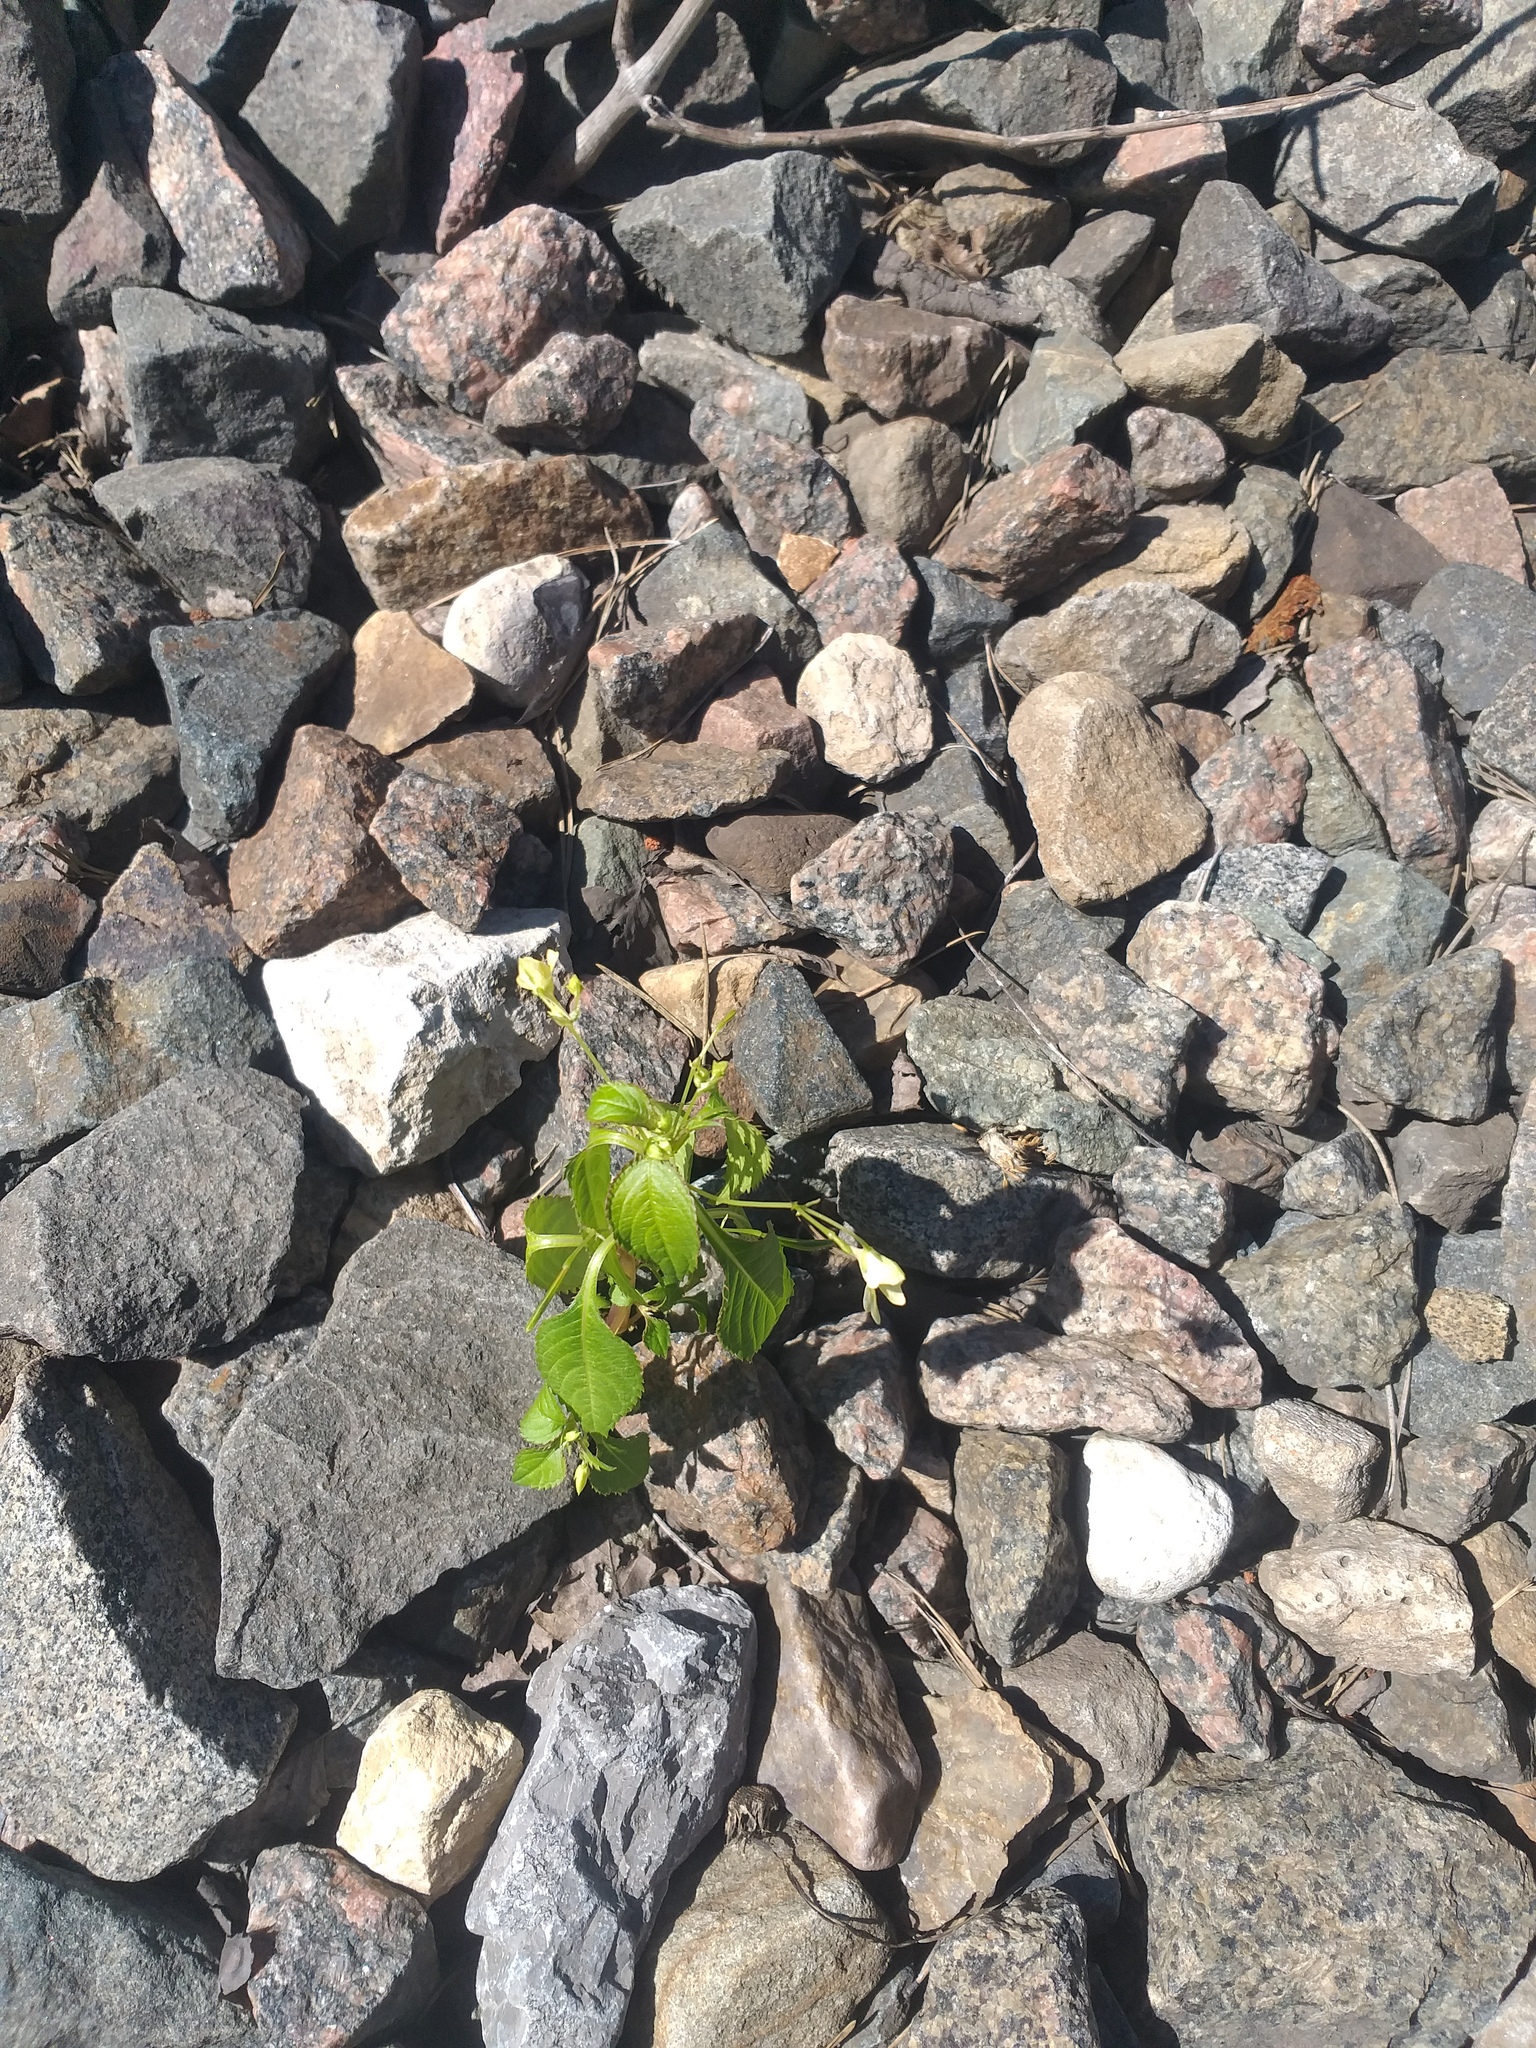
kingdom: Plantae
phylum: Tracheophyta
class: Magnoliopsida
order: Ericales
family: Balsaminaceae
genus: Impatiens
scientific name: Impatiens parviflora
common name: Small balsam
